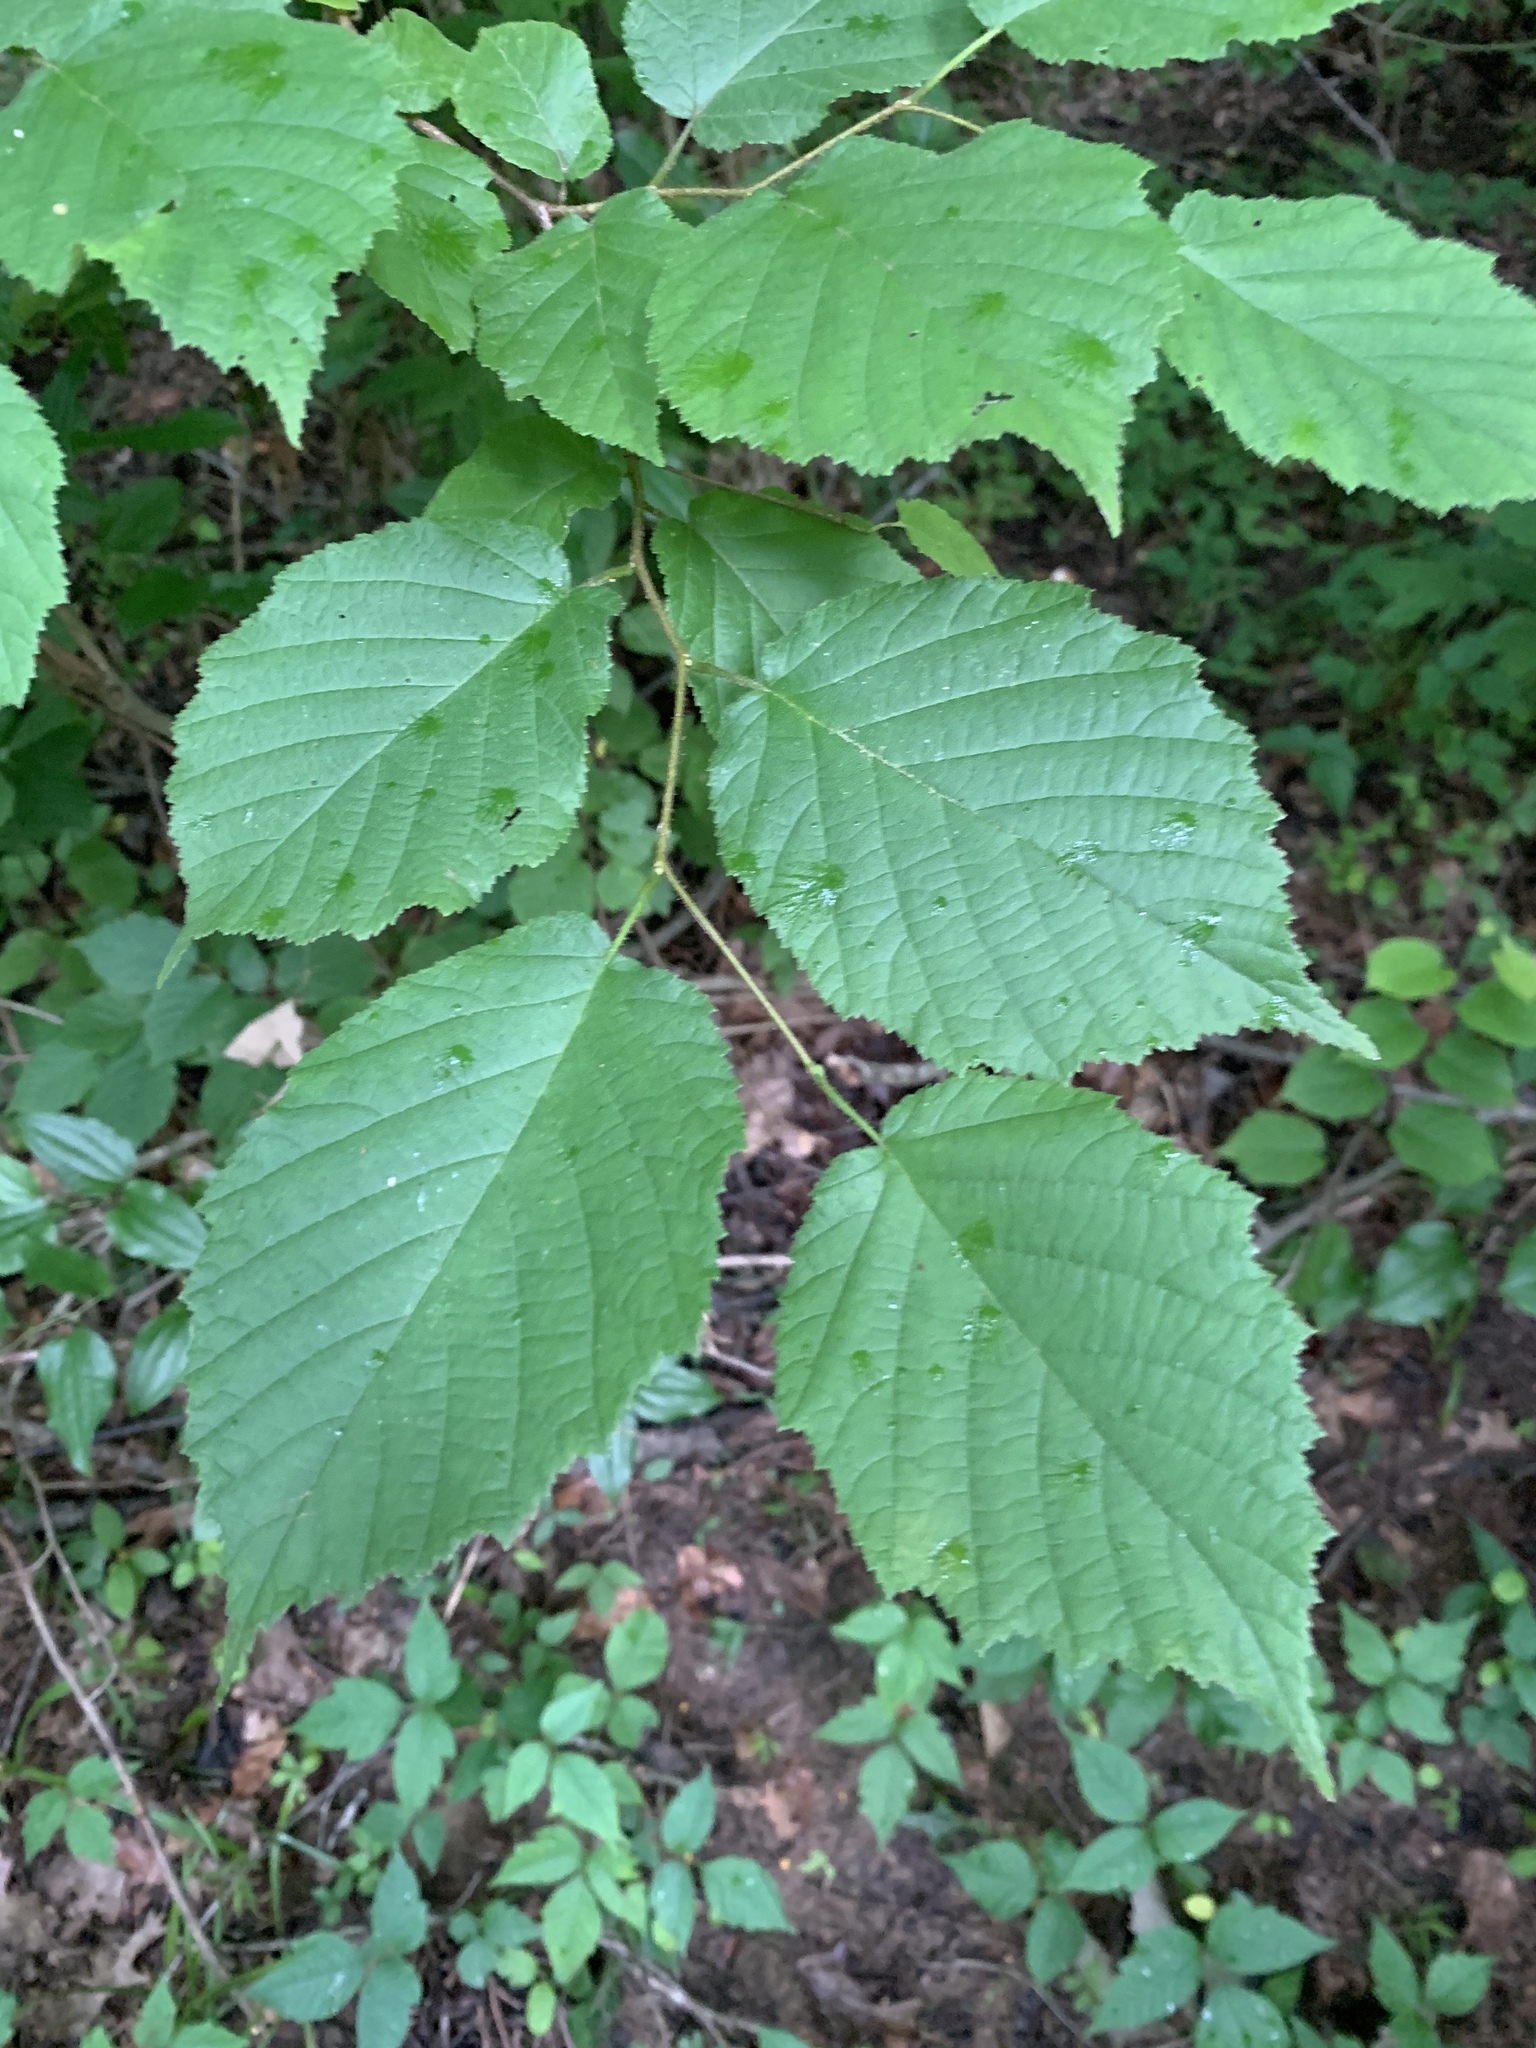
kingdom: Plantae
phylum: Tracheophyta
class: Magnoliopsida
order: Fagales
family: Betulaceae
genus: Corylus
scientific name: Corylus americana
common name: American hazel
